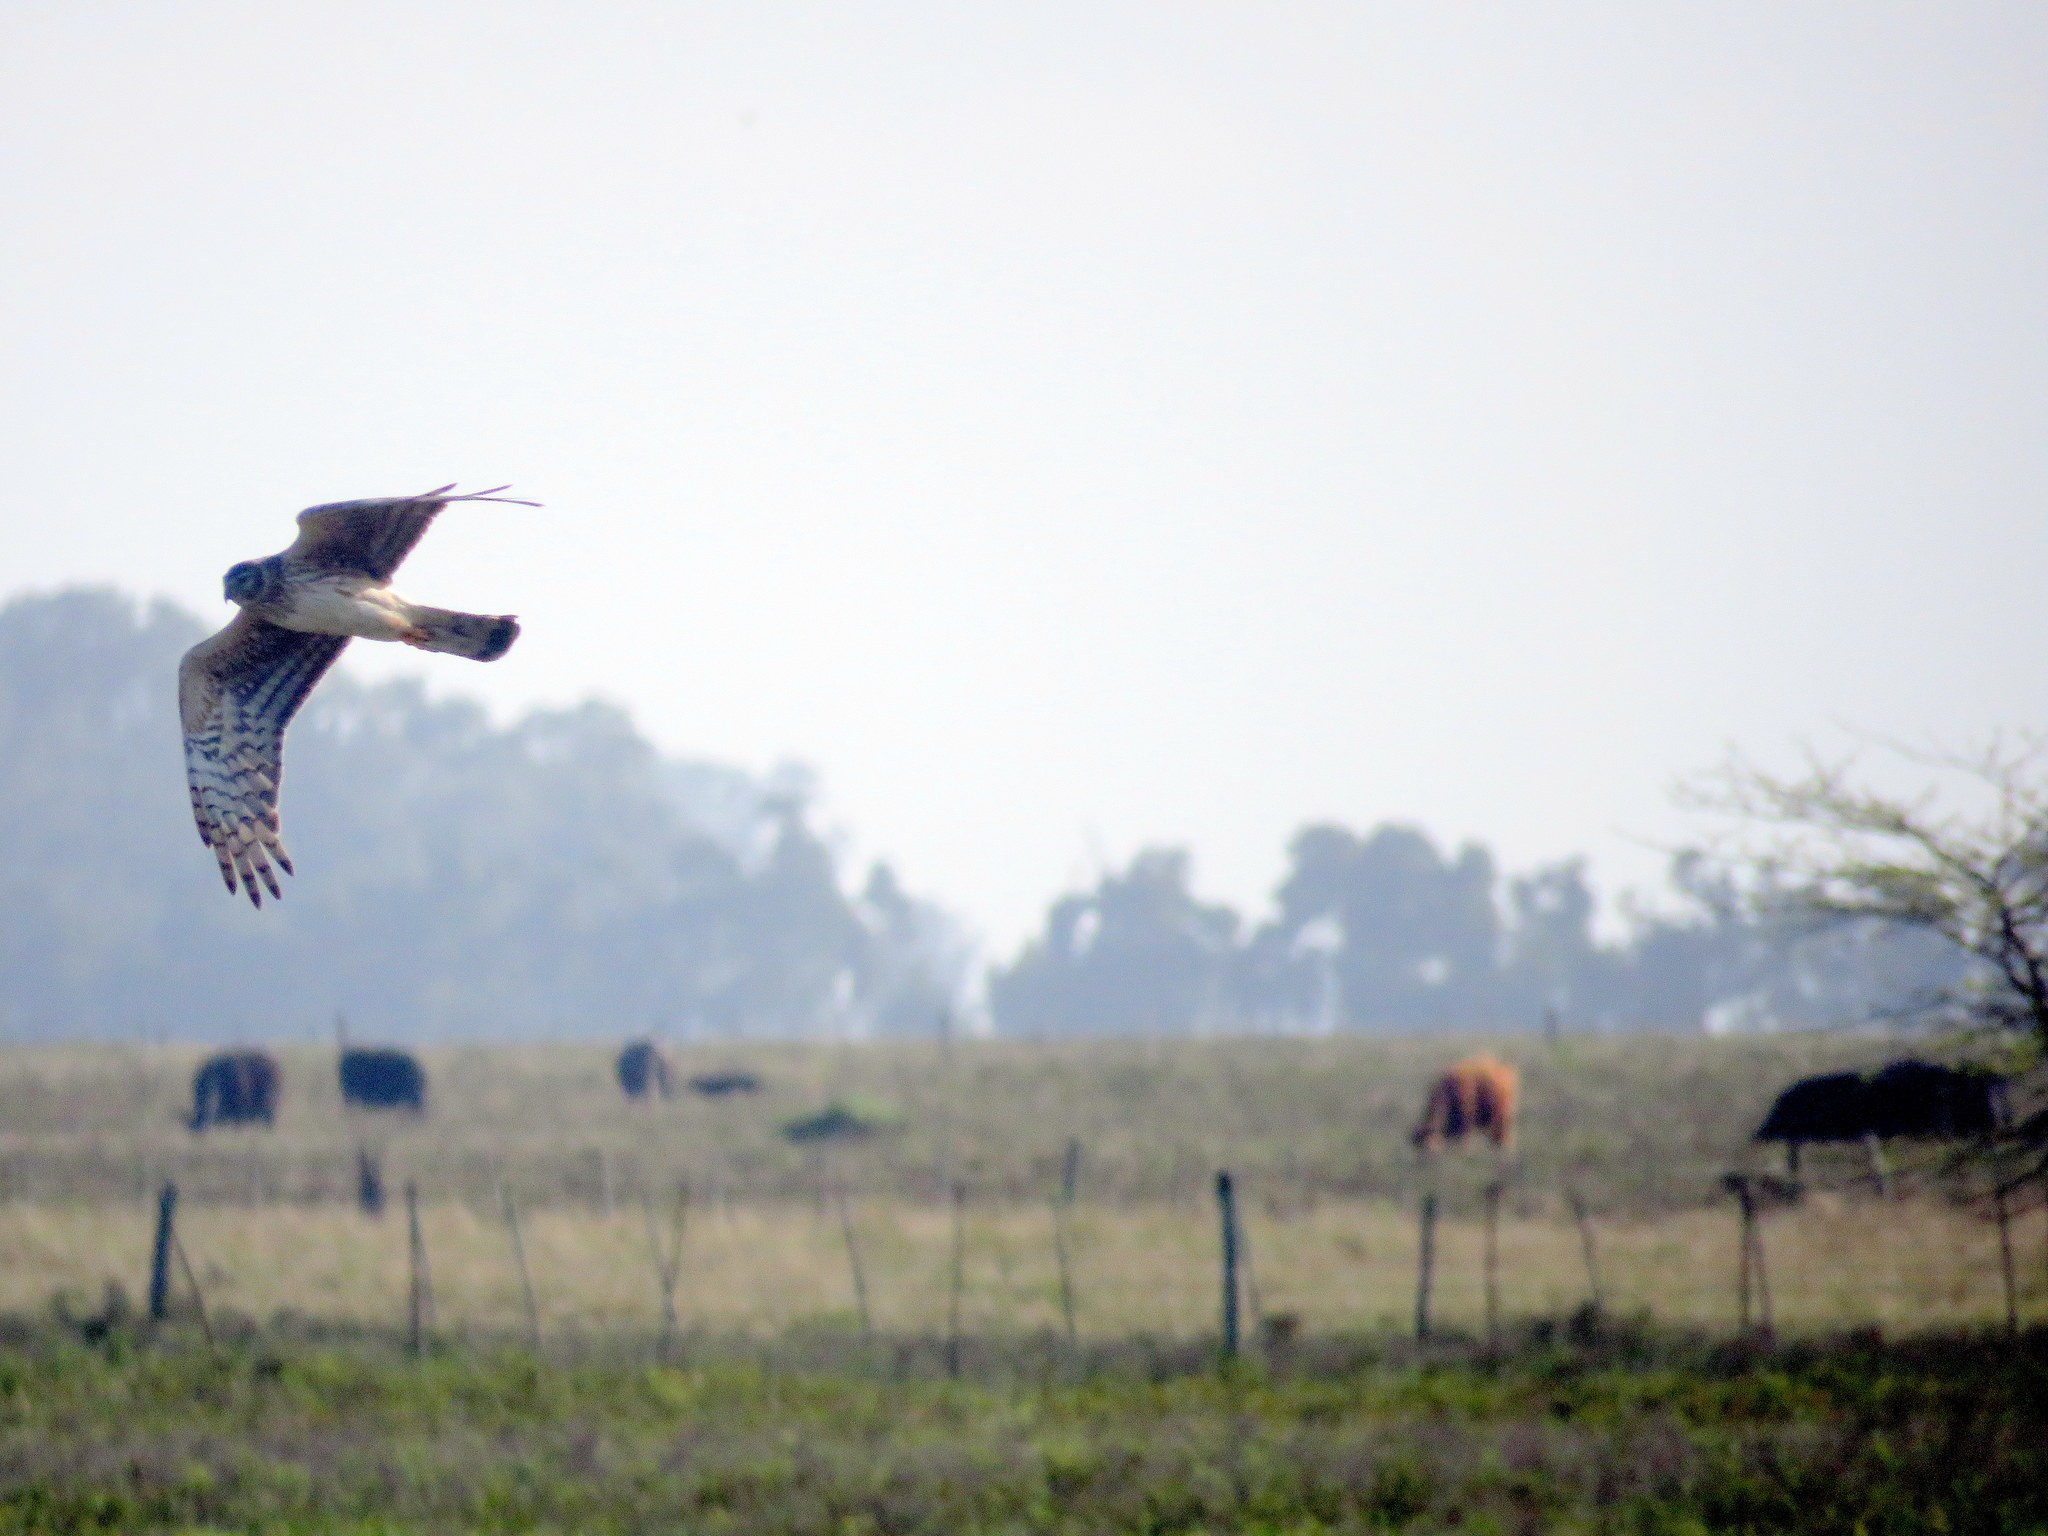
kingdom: Animalia
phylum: Chordata
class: Aves
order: Accipitriformes
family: Accipitridae
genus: Circus
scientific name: Circus buffoni
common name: Long-winged harrier
